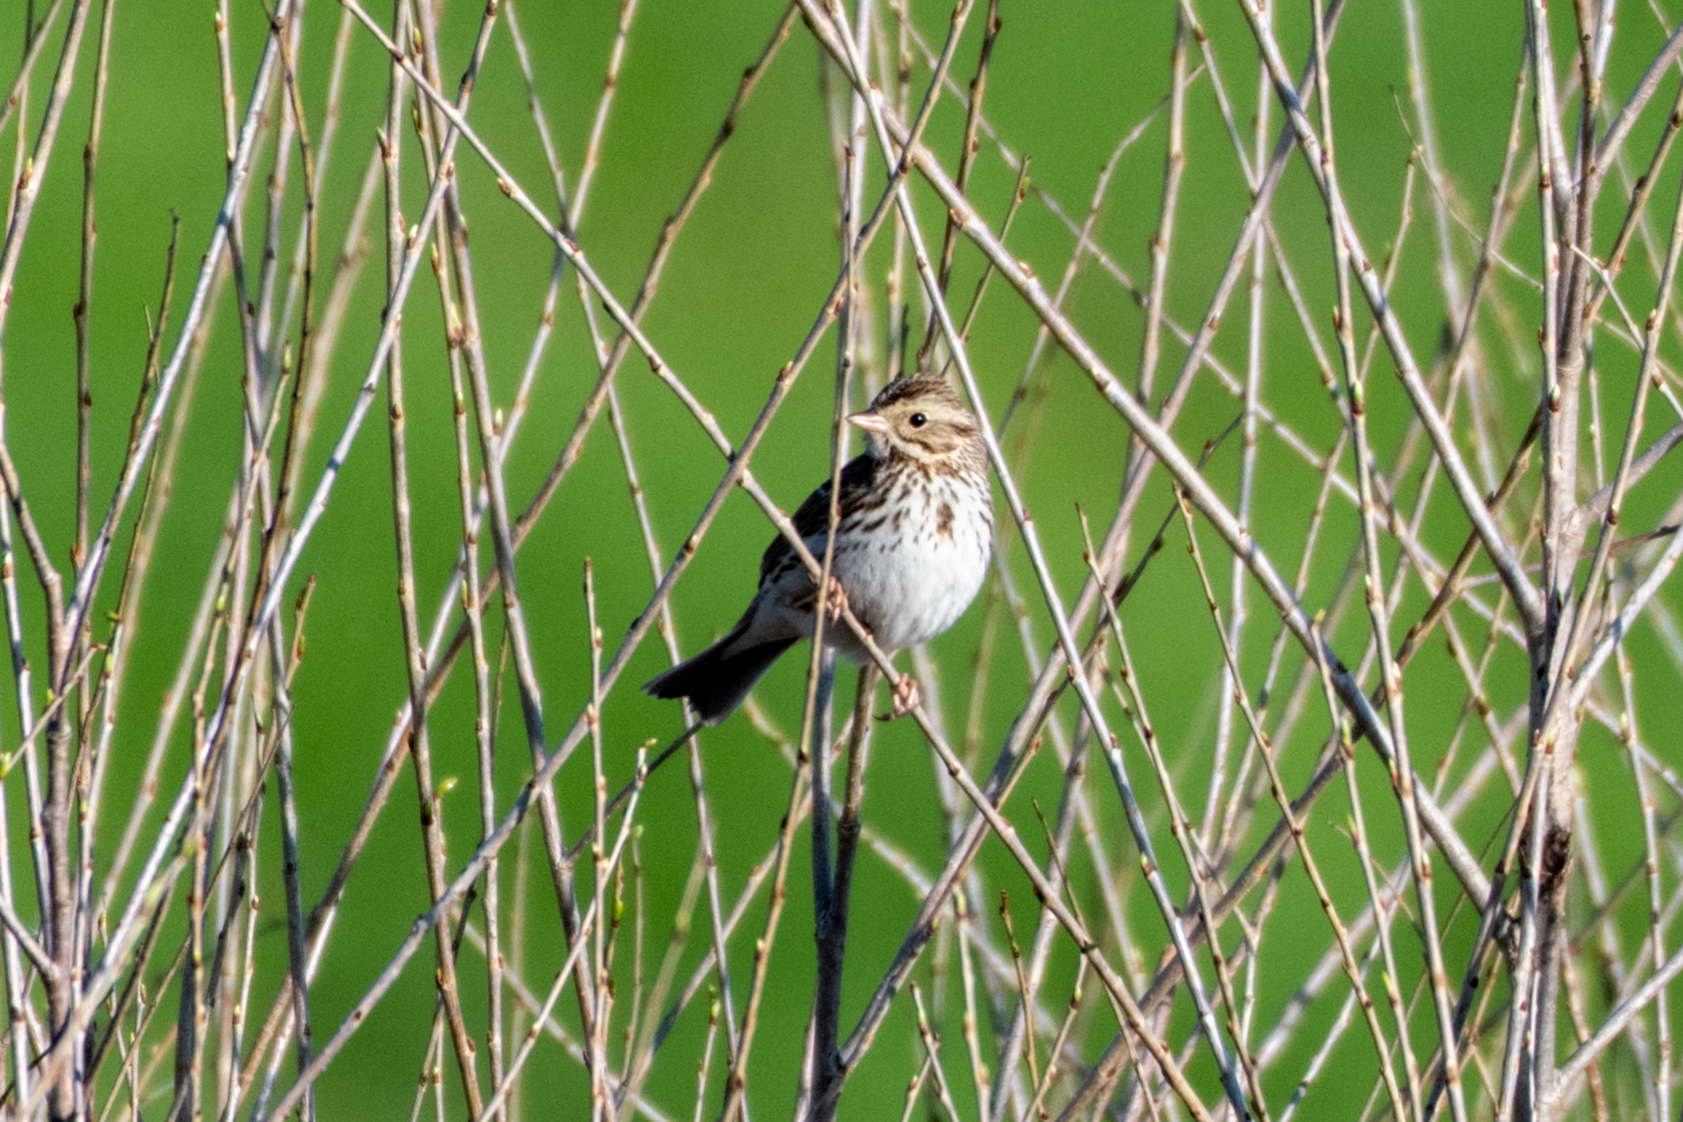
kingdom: Animalia
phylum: Chordata
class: Aves
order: Passeriformes
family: Passerellidae
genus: Passerculus
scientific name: Passerculus sandwichensis
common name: Savannah sparrow
